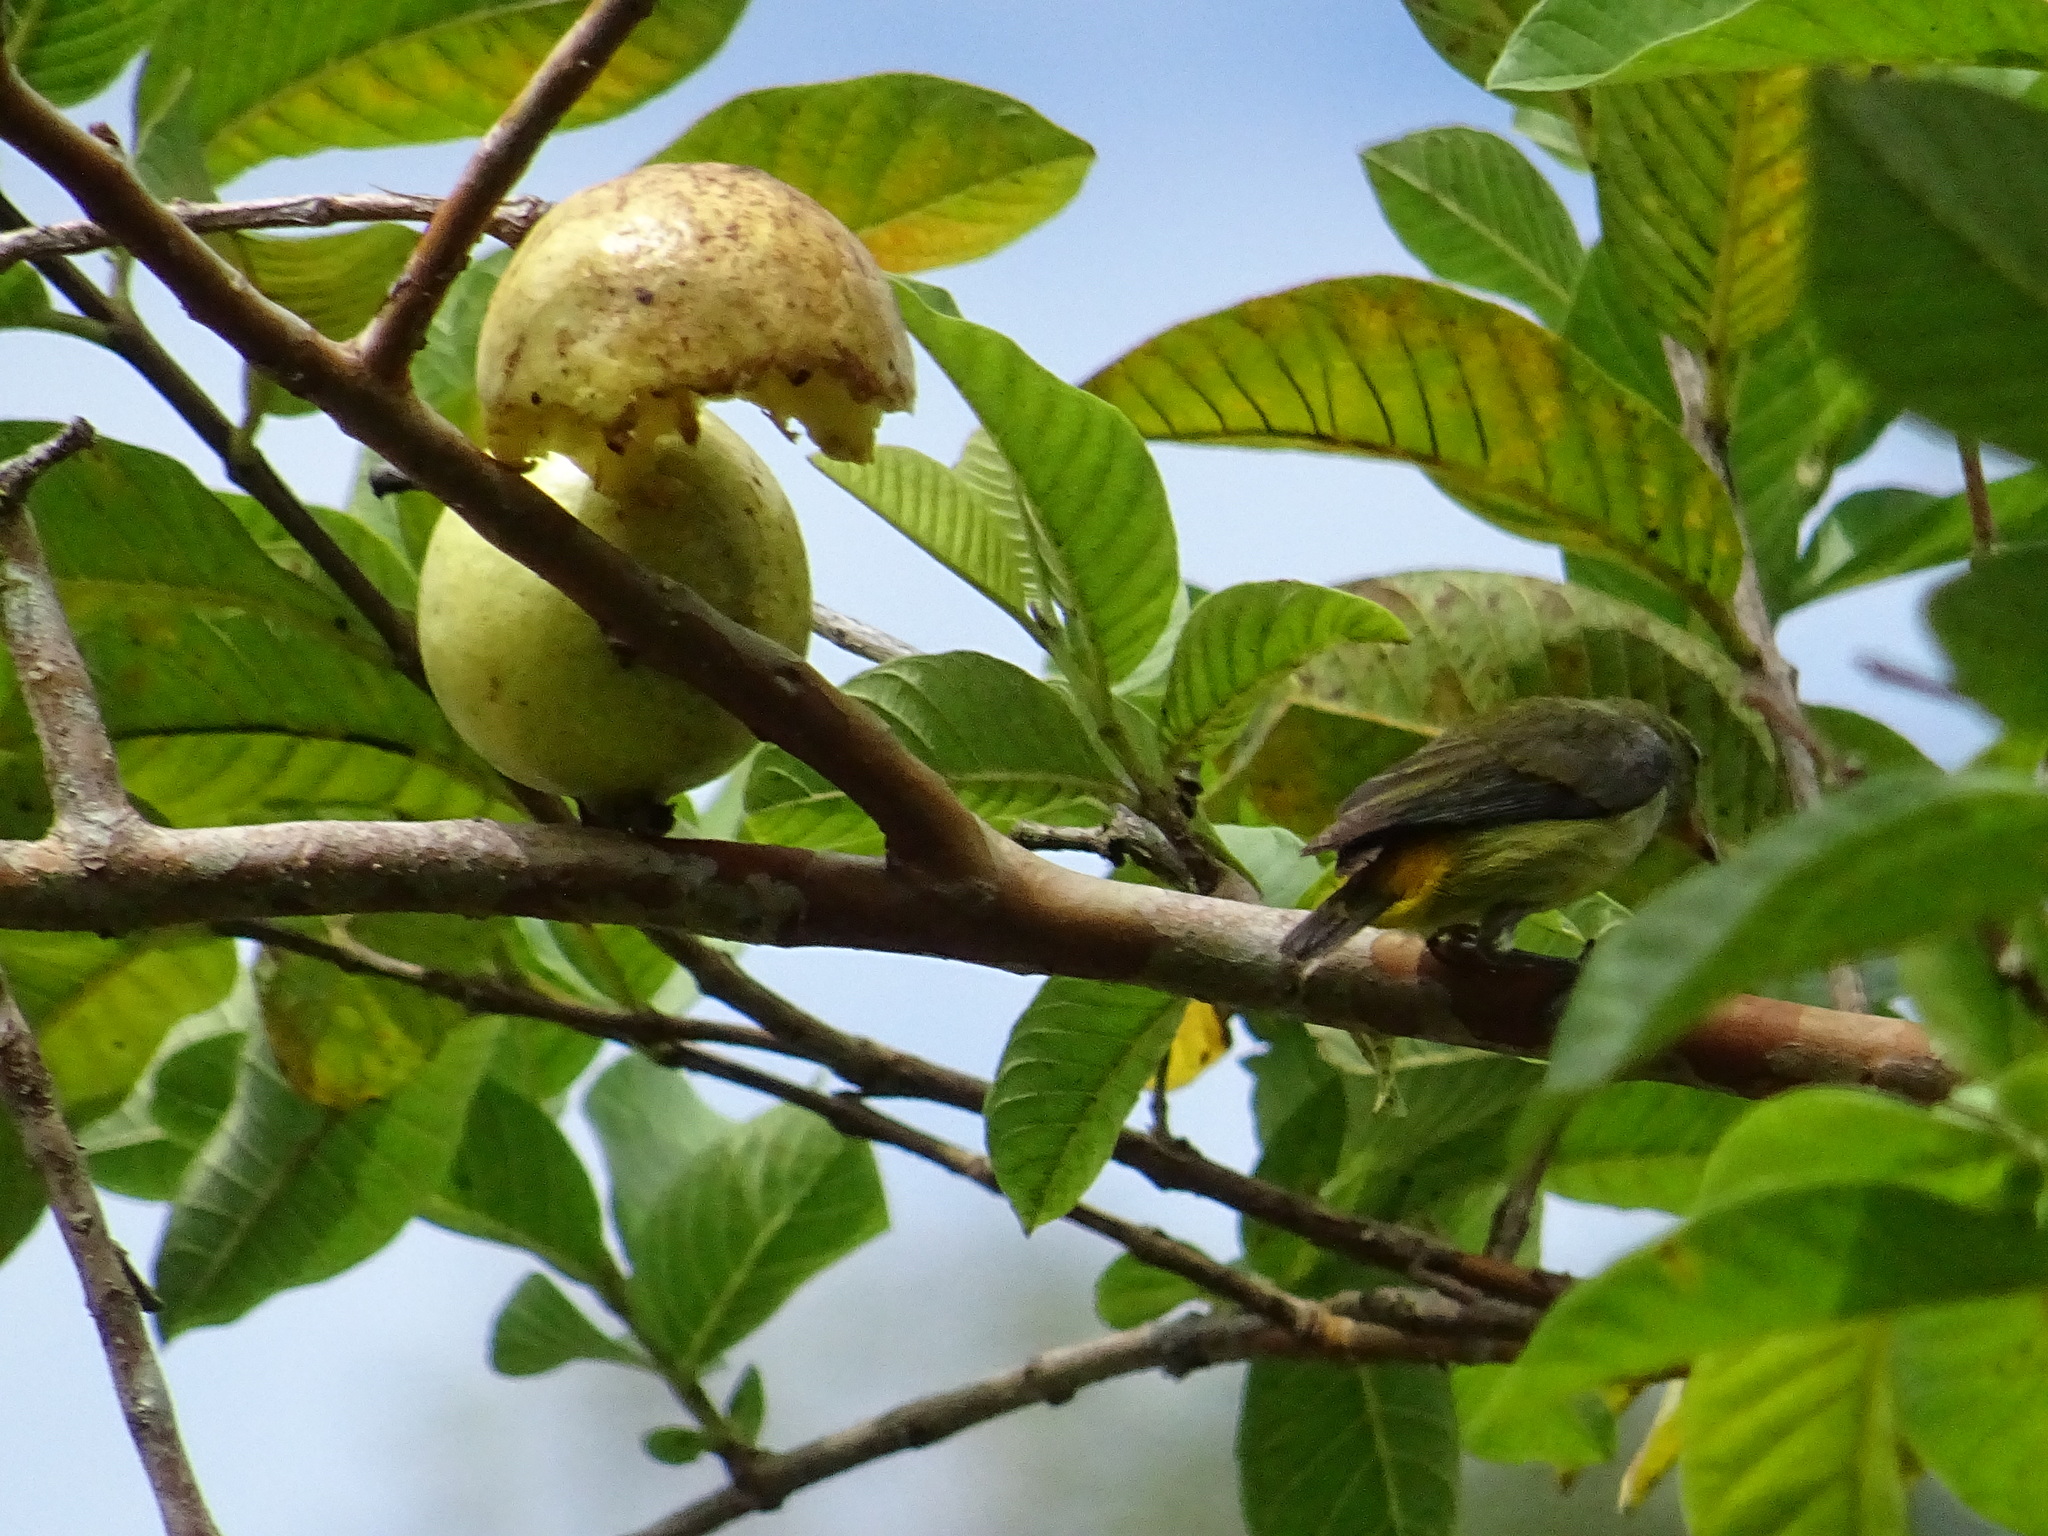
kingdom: Animalia
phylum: Chordata
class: Aves
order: Passeriformes
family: Dicaeidae
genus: Prionochilus
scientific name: Prionochilus xanthopygius
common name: Yellow-rumped flowerpecker
